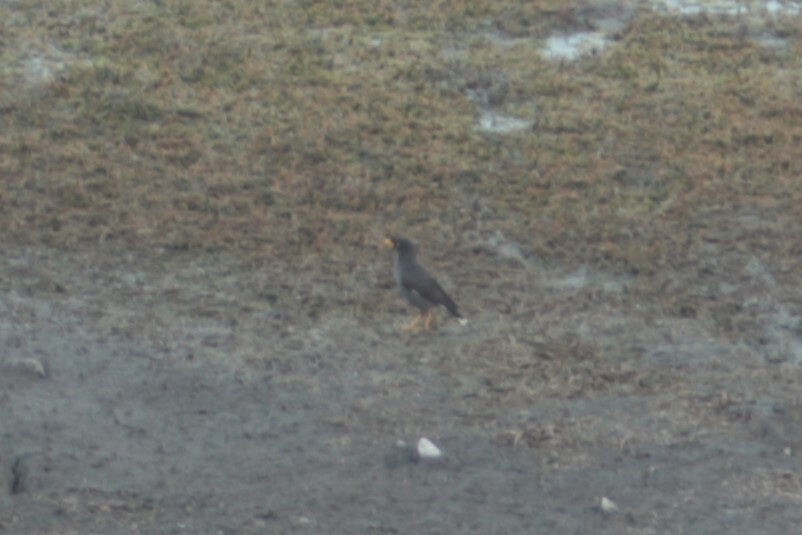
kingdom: Animalia
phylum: Chordata
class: Aves
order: Passeriformes
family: Sturnidae
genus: Acridotheres
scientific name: Acridotheres javanicus
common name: Javan myna
